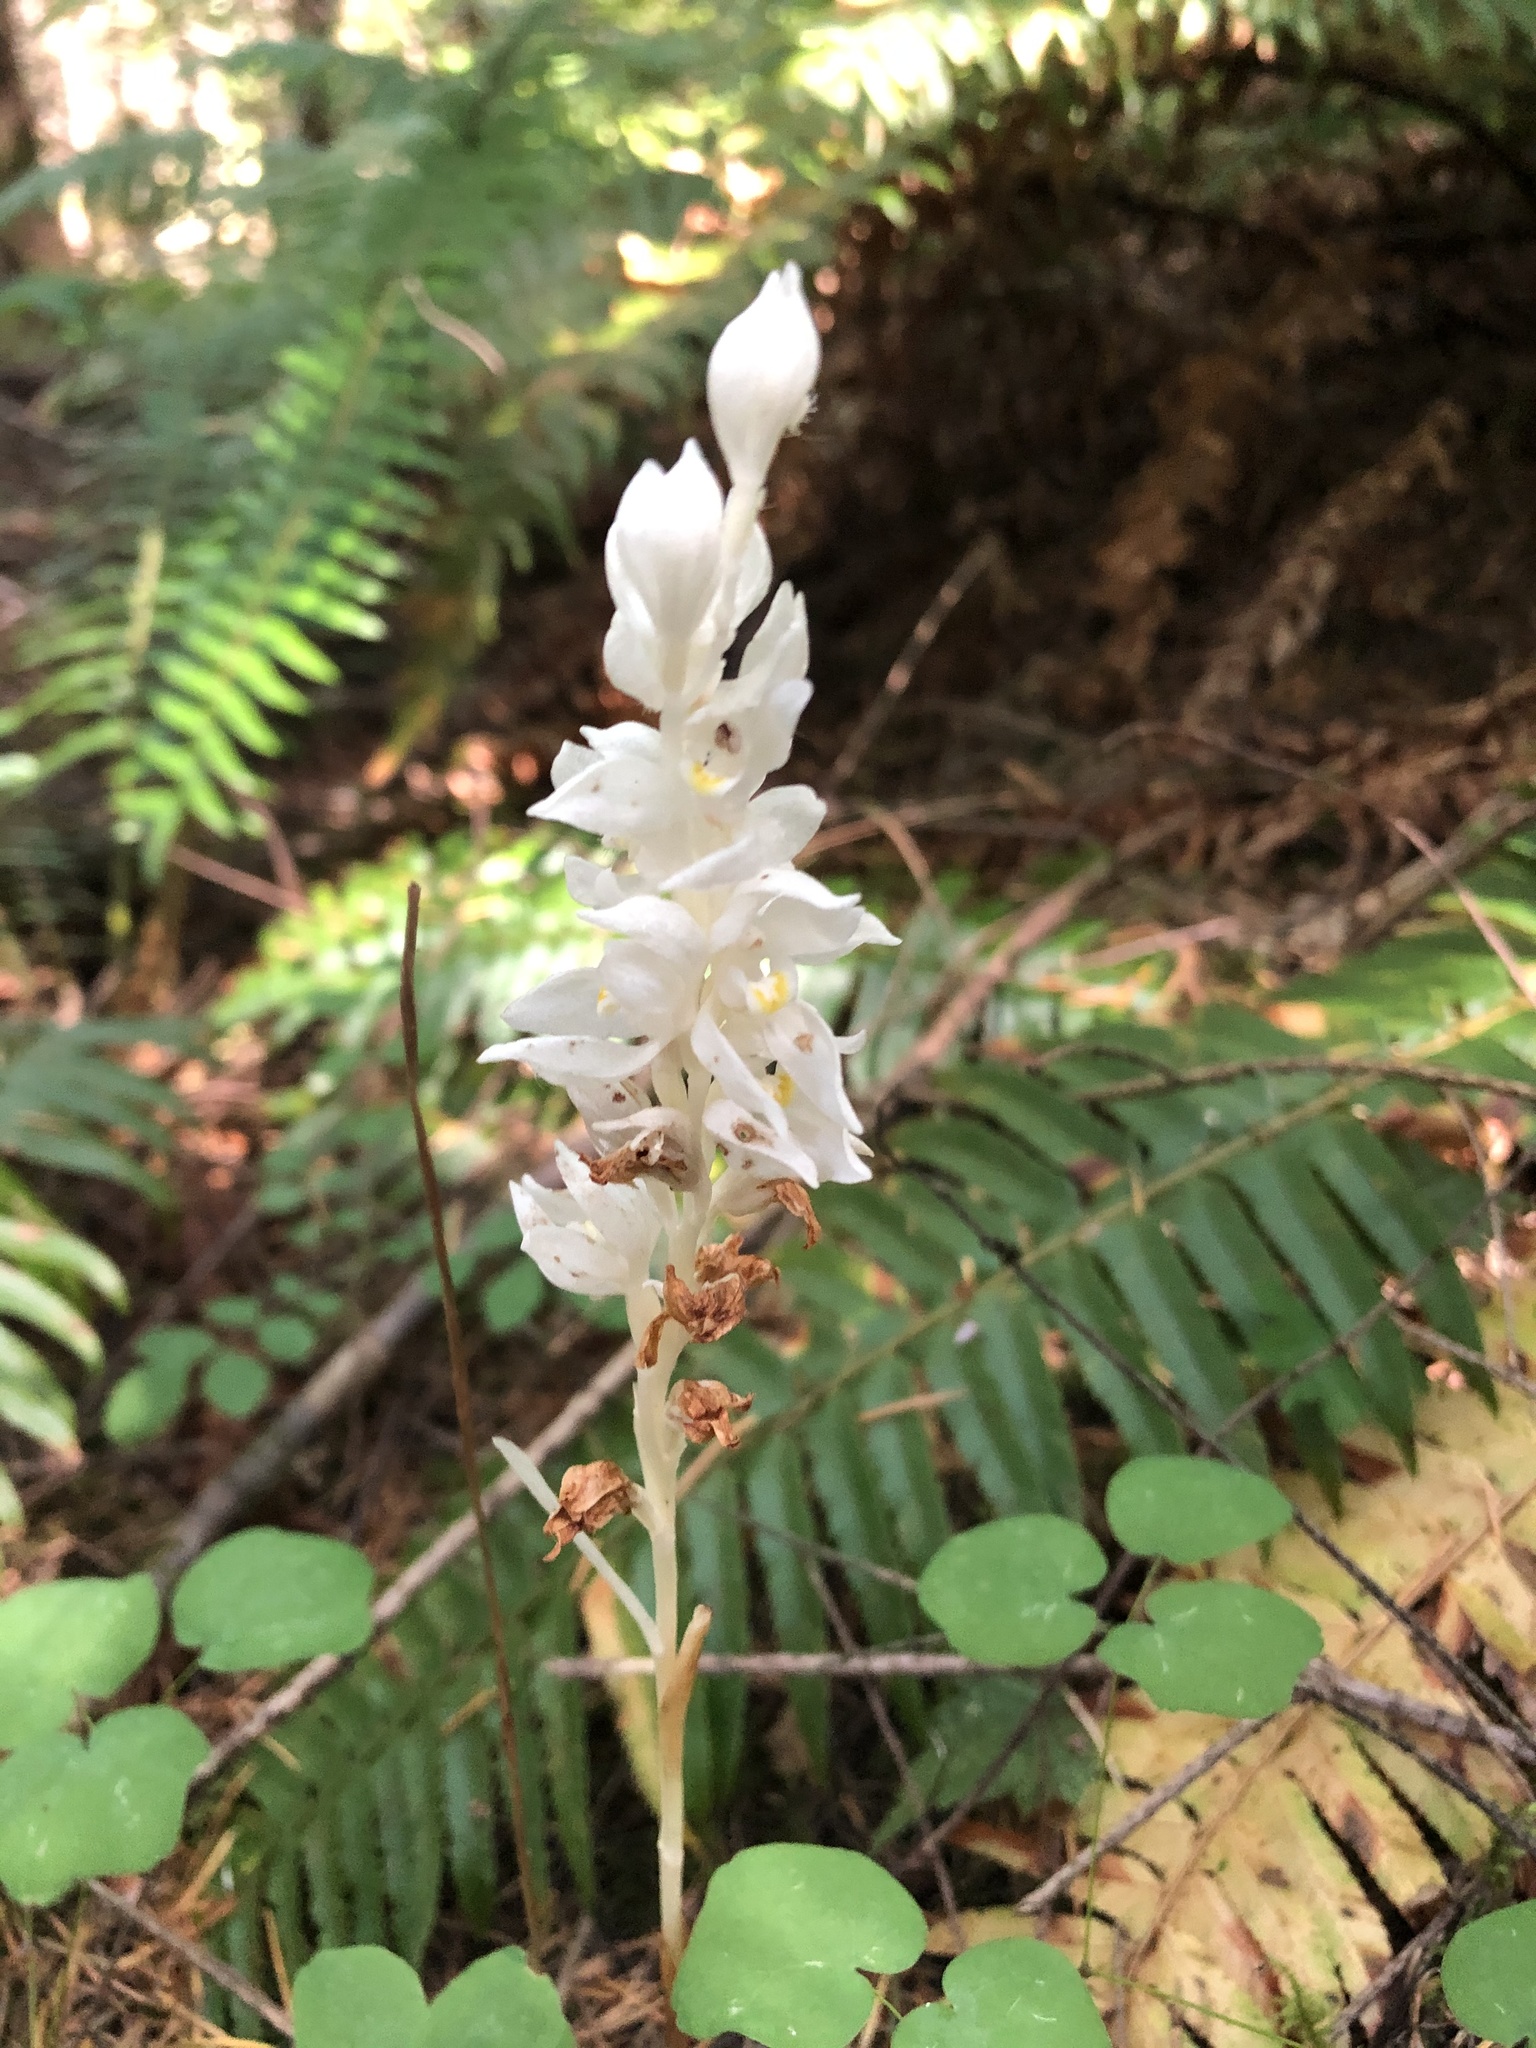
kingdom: Plantae
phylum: Tracheophyta
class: Liliopsida
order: Asparagales
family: Orchidaceae
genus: Cephalanthera
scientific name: Cephalanthera austiniae
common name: Phantom orchid
